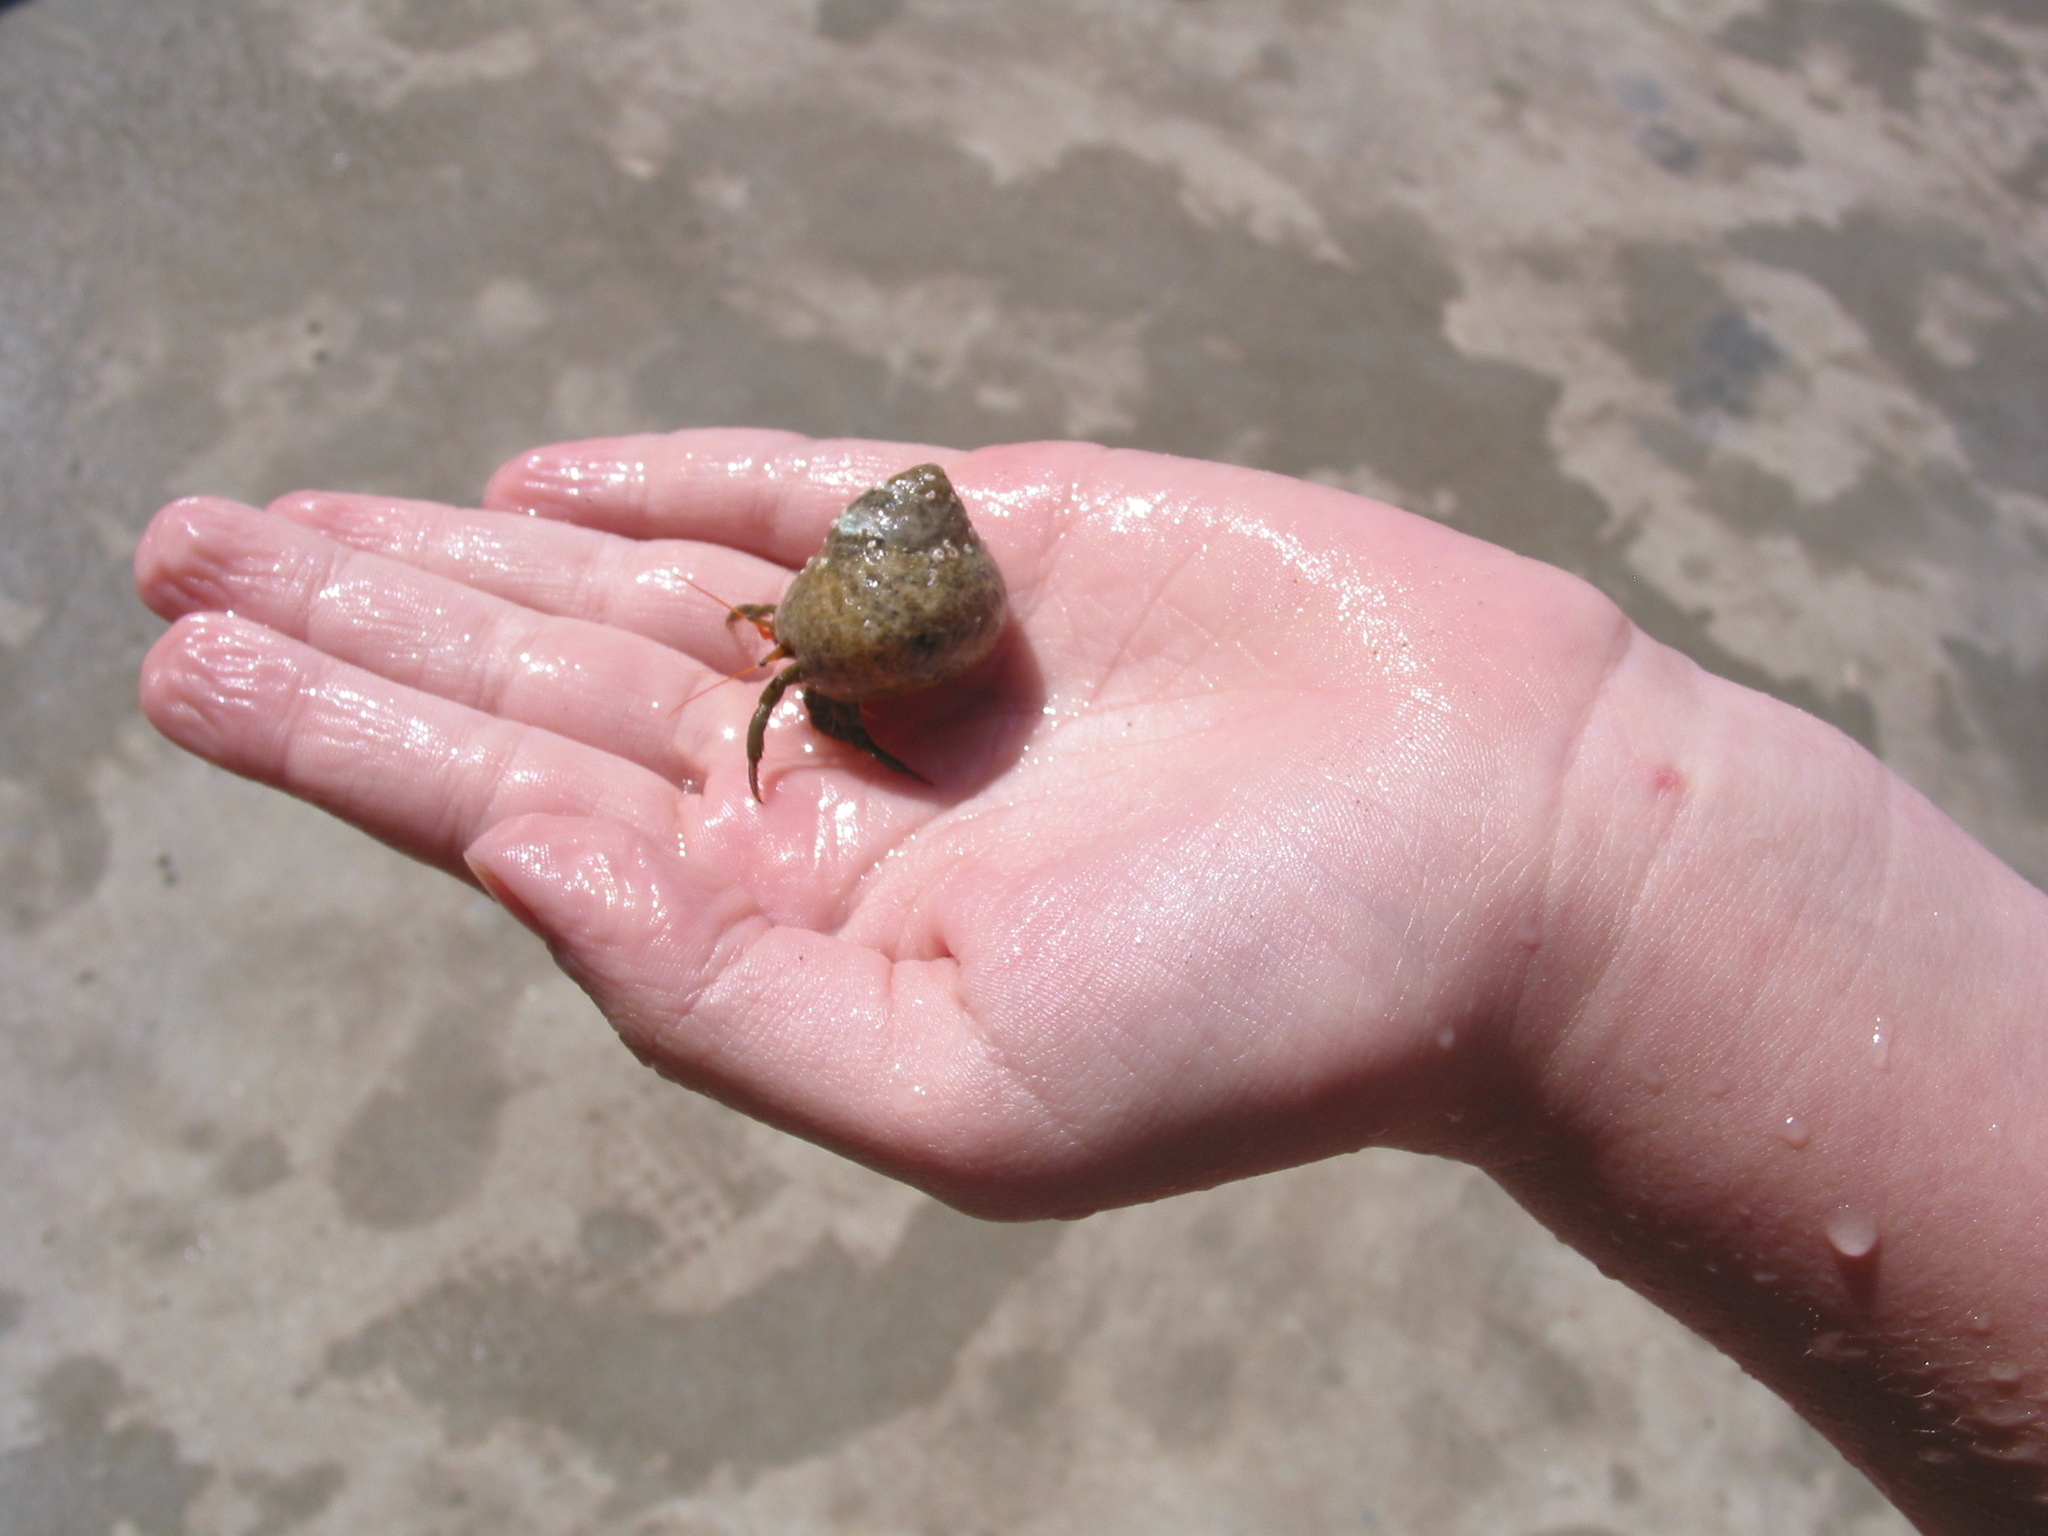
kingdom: Animalia
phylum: Arthropoda
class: Malacostraca
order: Decapoda
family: Diogenidae
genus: Clibanarius
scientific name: Clibanarius erythropus
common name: Hermit crab
